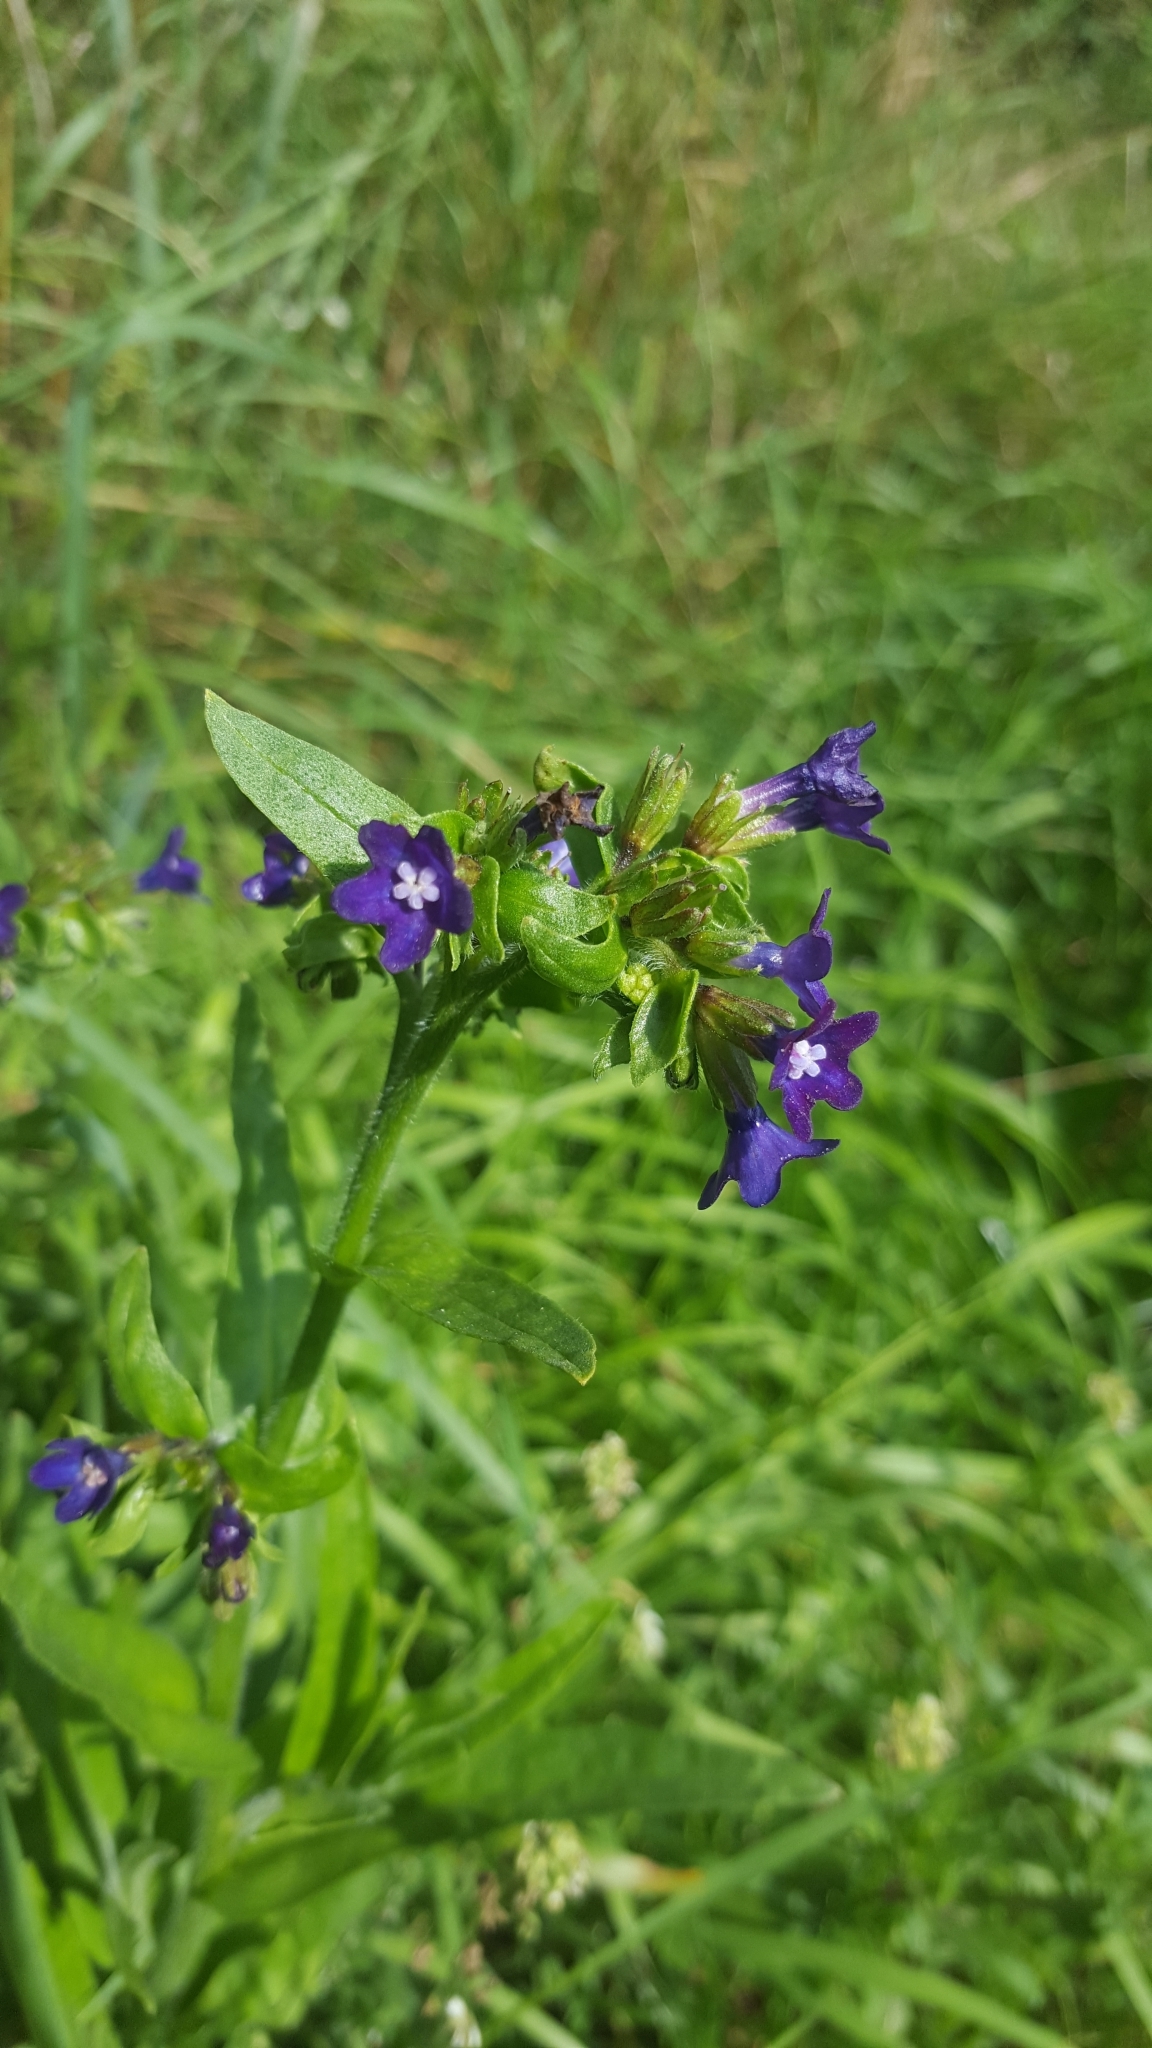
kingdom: Plantae
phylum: Tracheophyta
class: Magnoliopsida
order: Boraginales
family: Boraginaceae
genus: Anchusa
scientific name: Anchusa officinalis
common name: Alkanet
